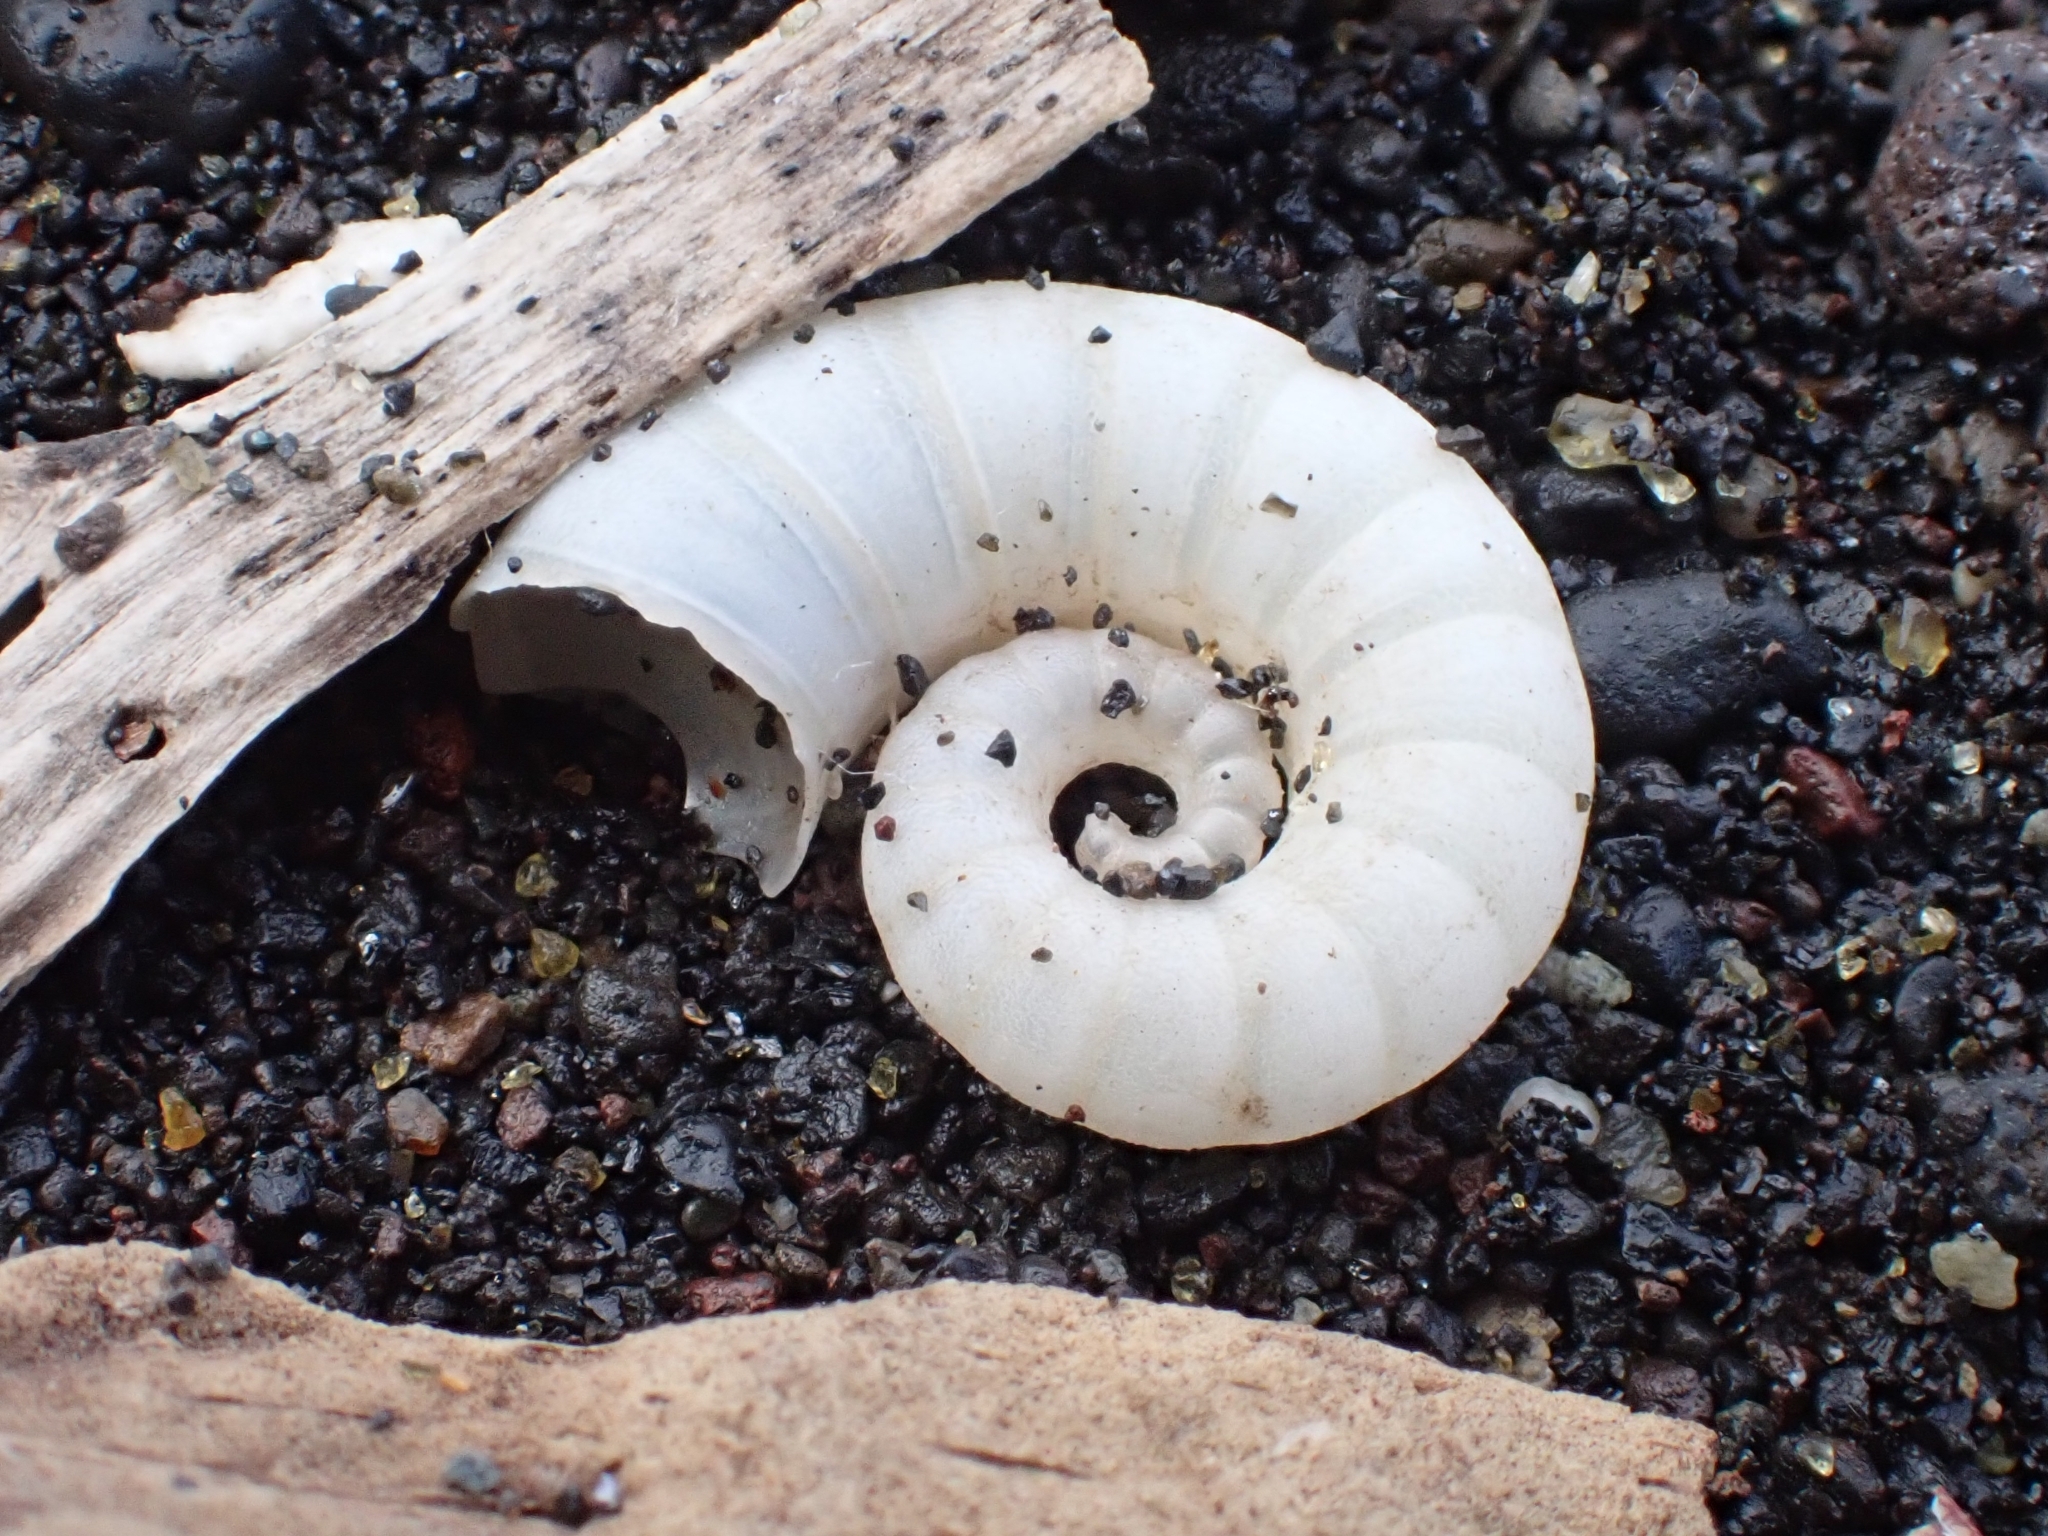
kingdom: Animalia
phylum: Mollusca
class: Cephalopoda
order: Spirulida
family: Spirulidae
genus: Spirula
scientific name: Spirula spirula
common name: Ram's horn squid
